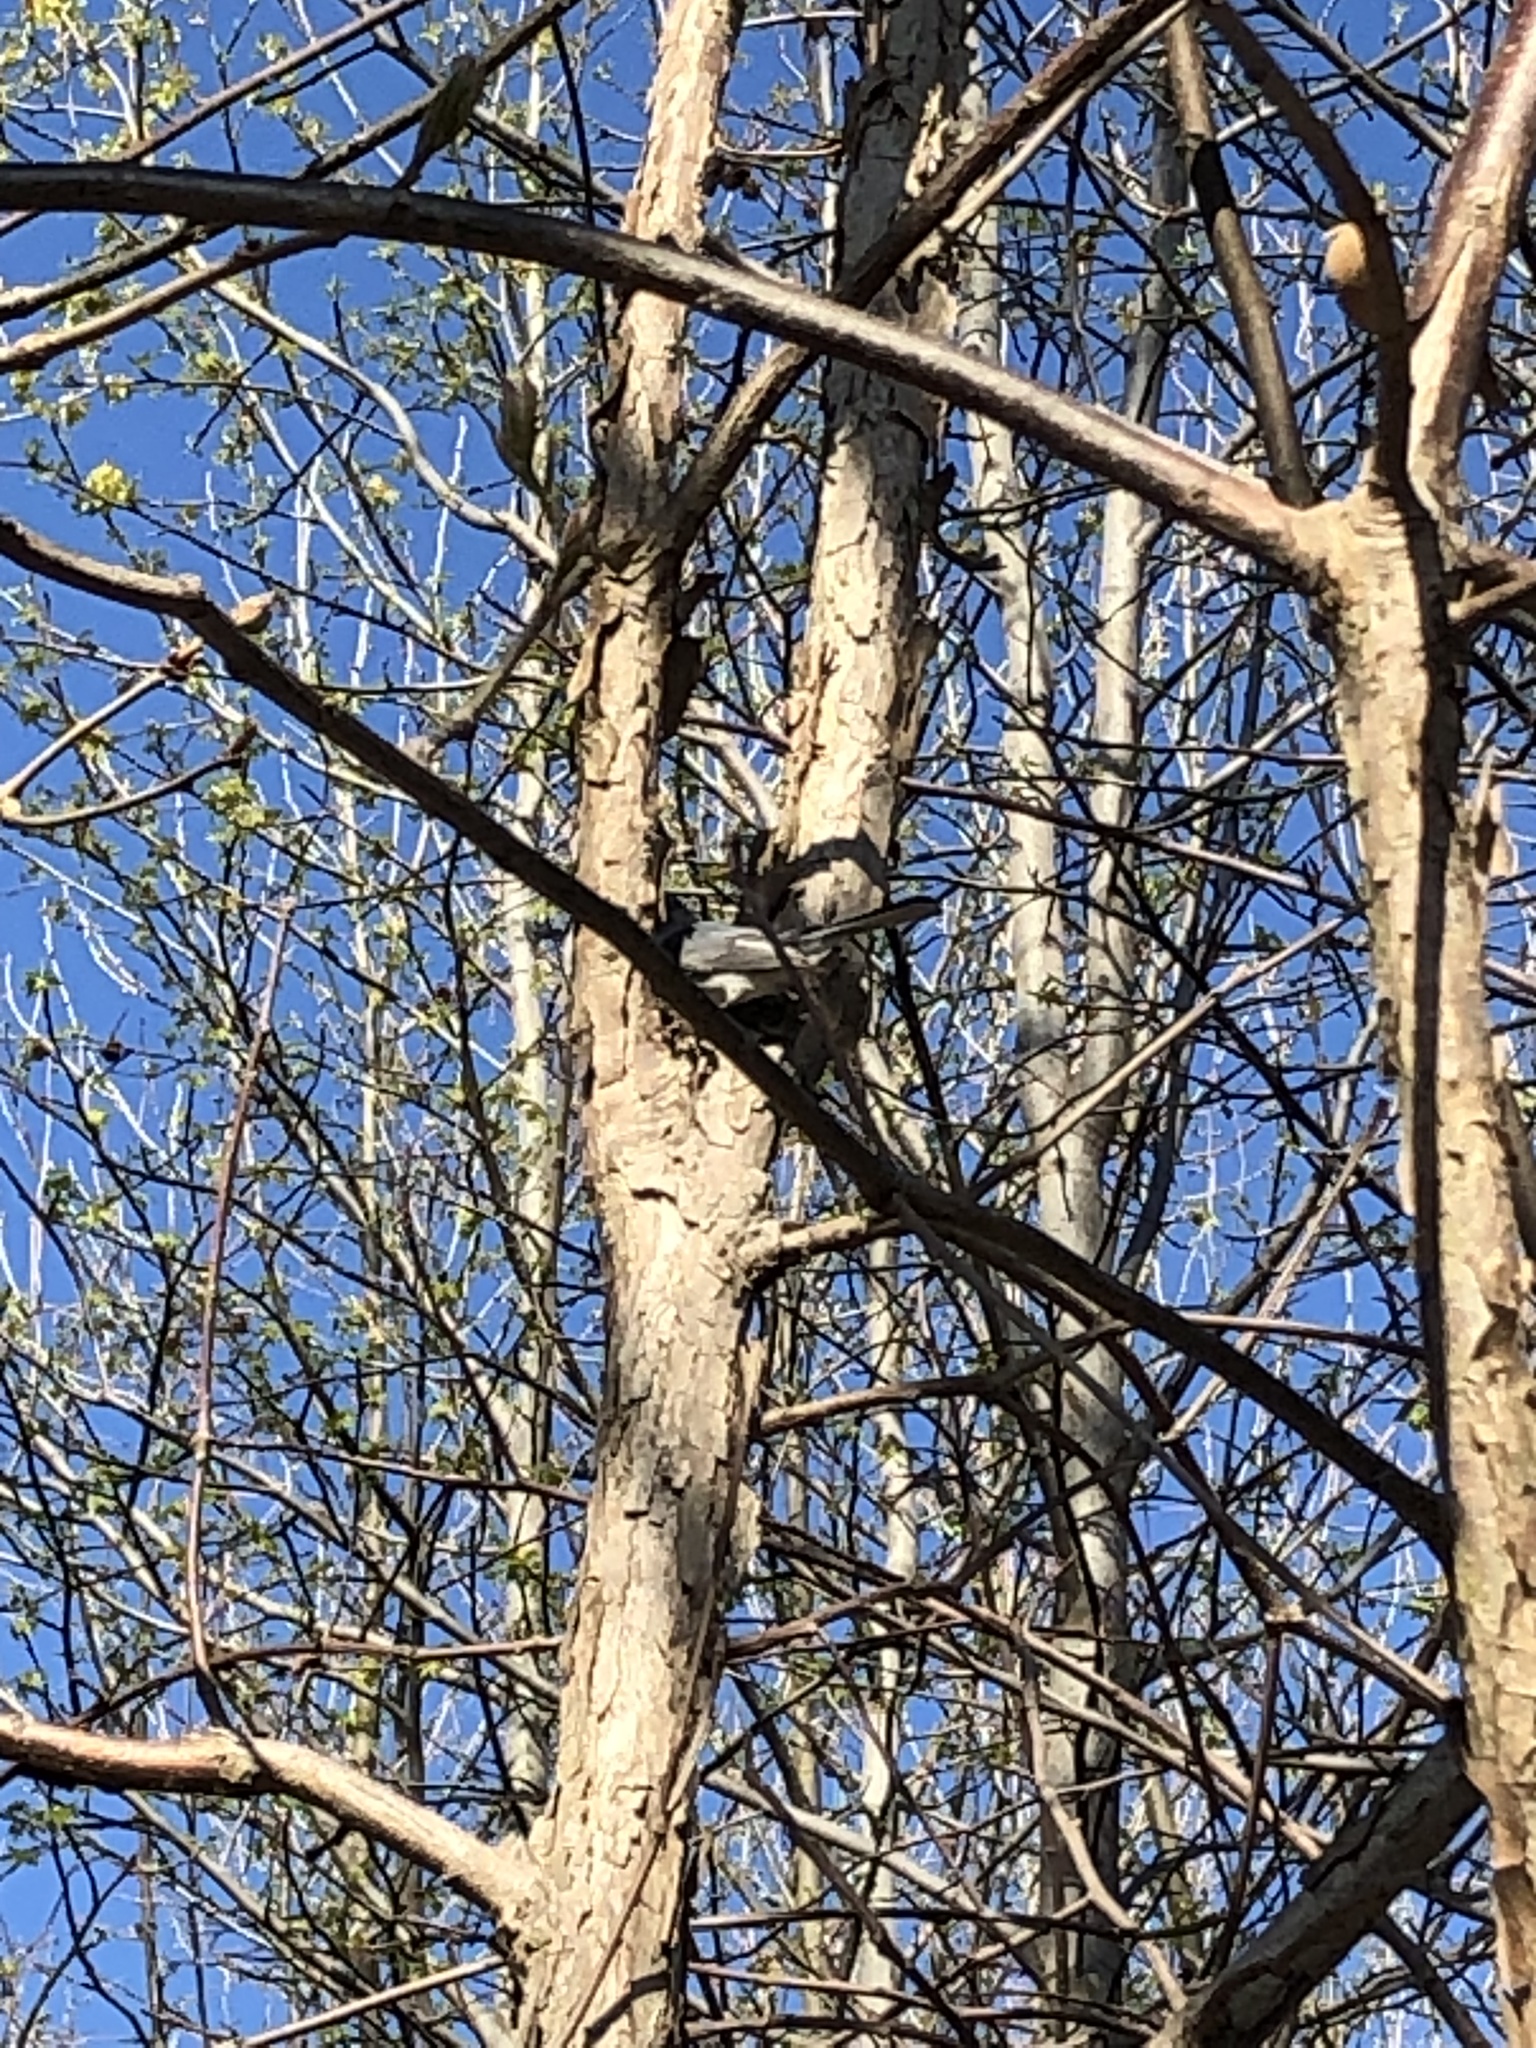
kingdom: Animalia
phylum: Chordata
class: Aves
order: Passeriformes
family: Polioptilidae
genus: Polioptila
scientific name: Polioptila caerulea
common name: Blue-gray gnatcatcher
